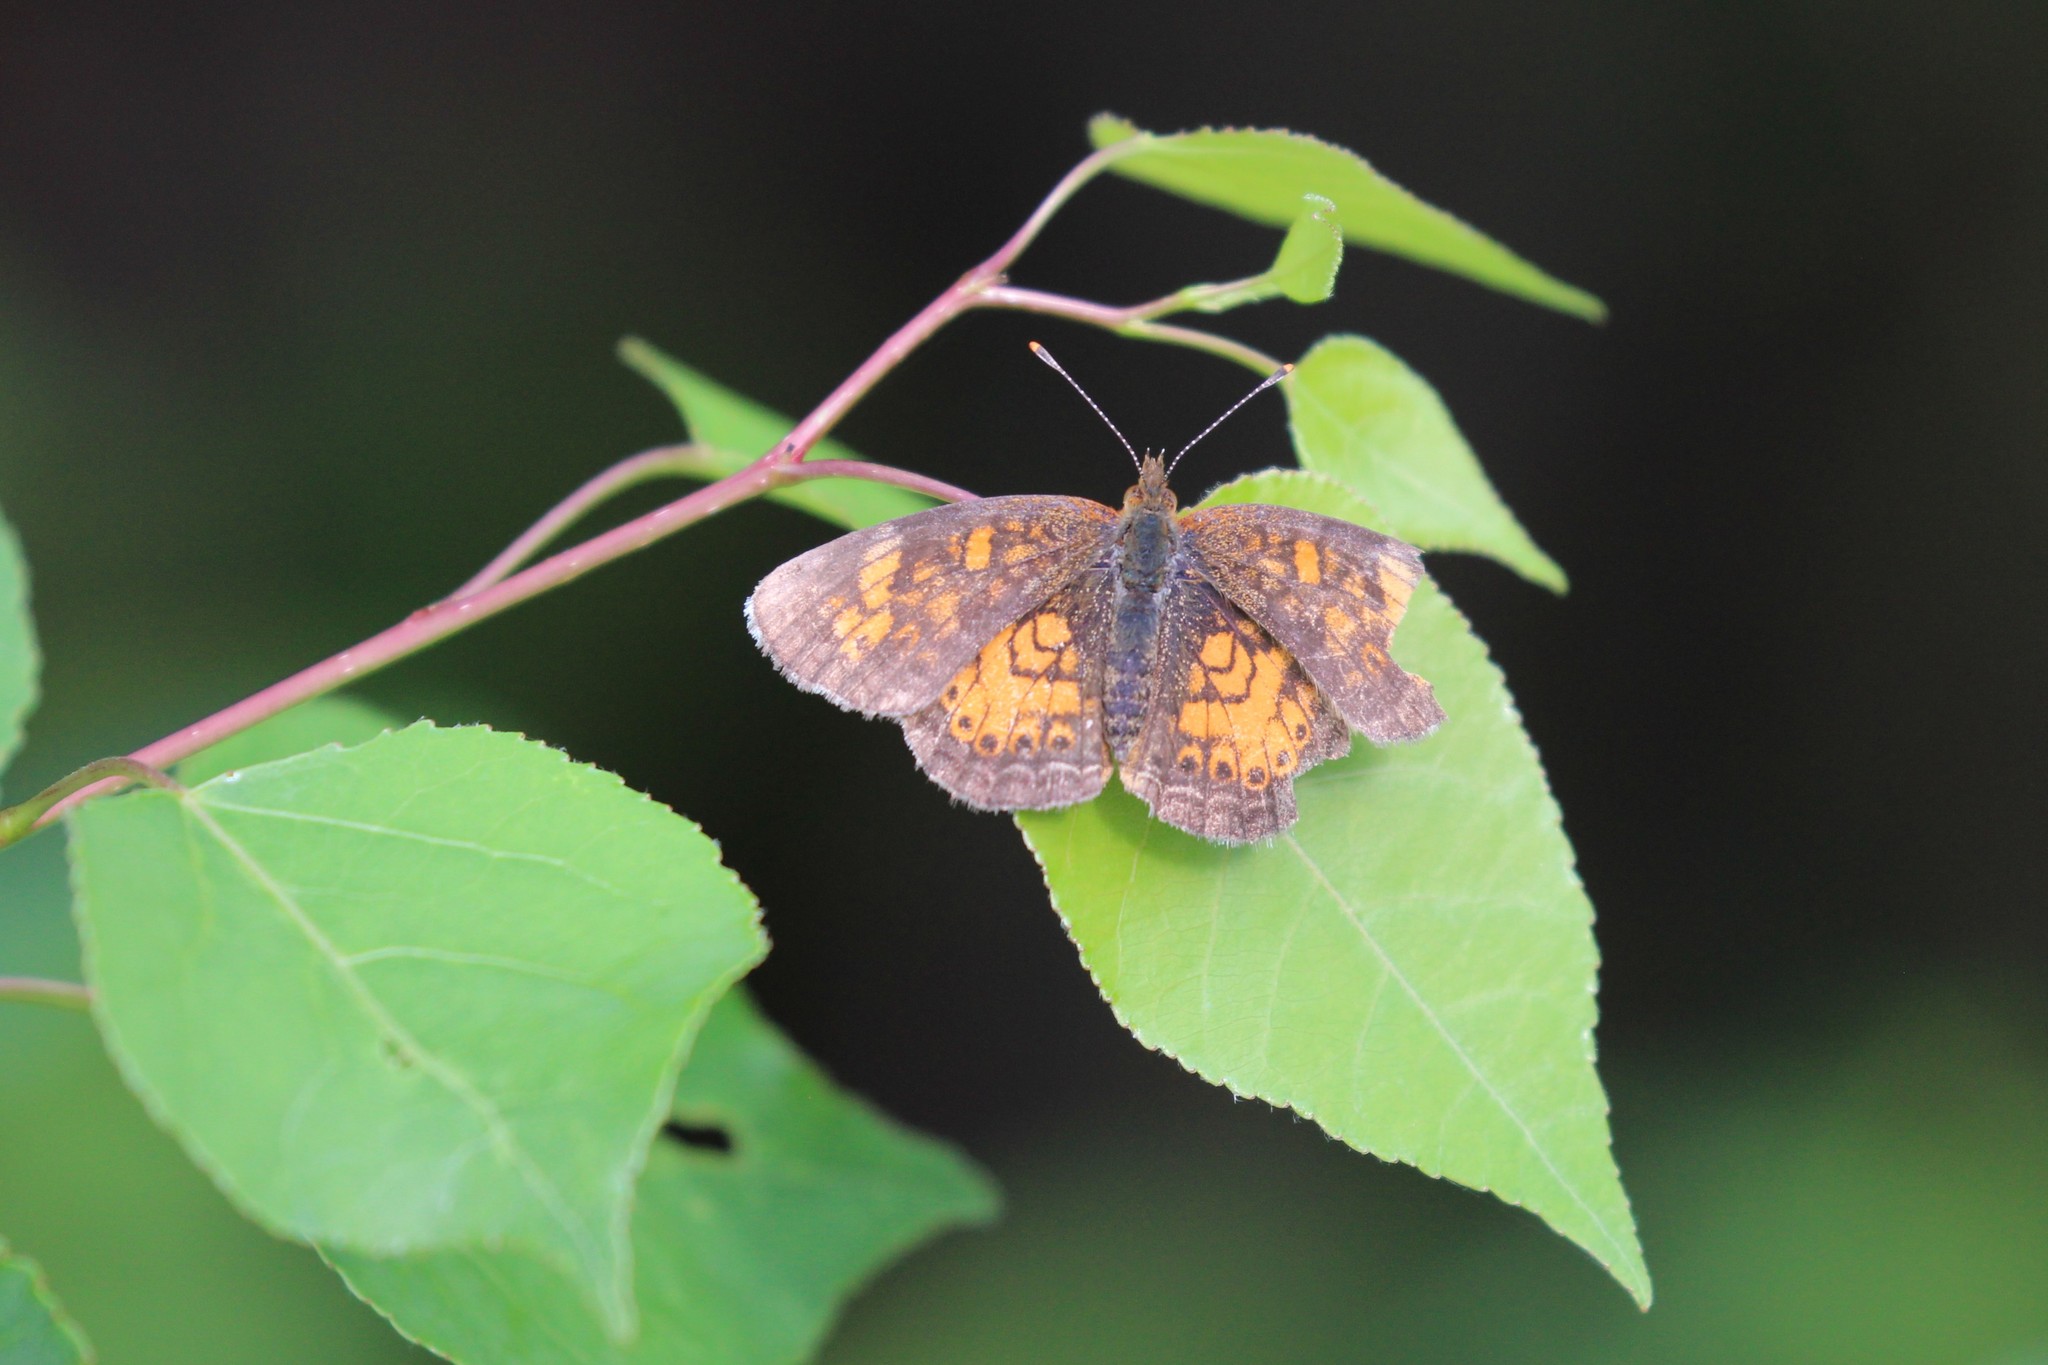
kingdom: Animalia
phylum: Arthropoda
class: Insecta
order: Lepidoptera
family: Nymphalidae
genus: Phyciodes
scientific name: Phyciodes tharos
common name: Pearl crescent
